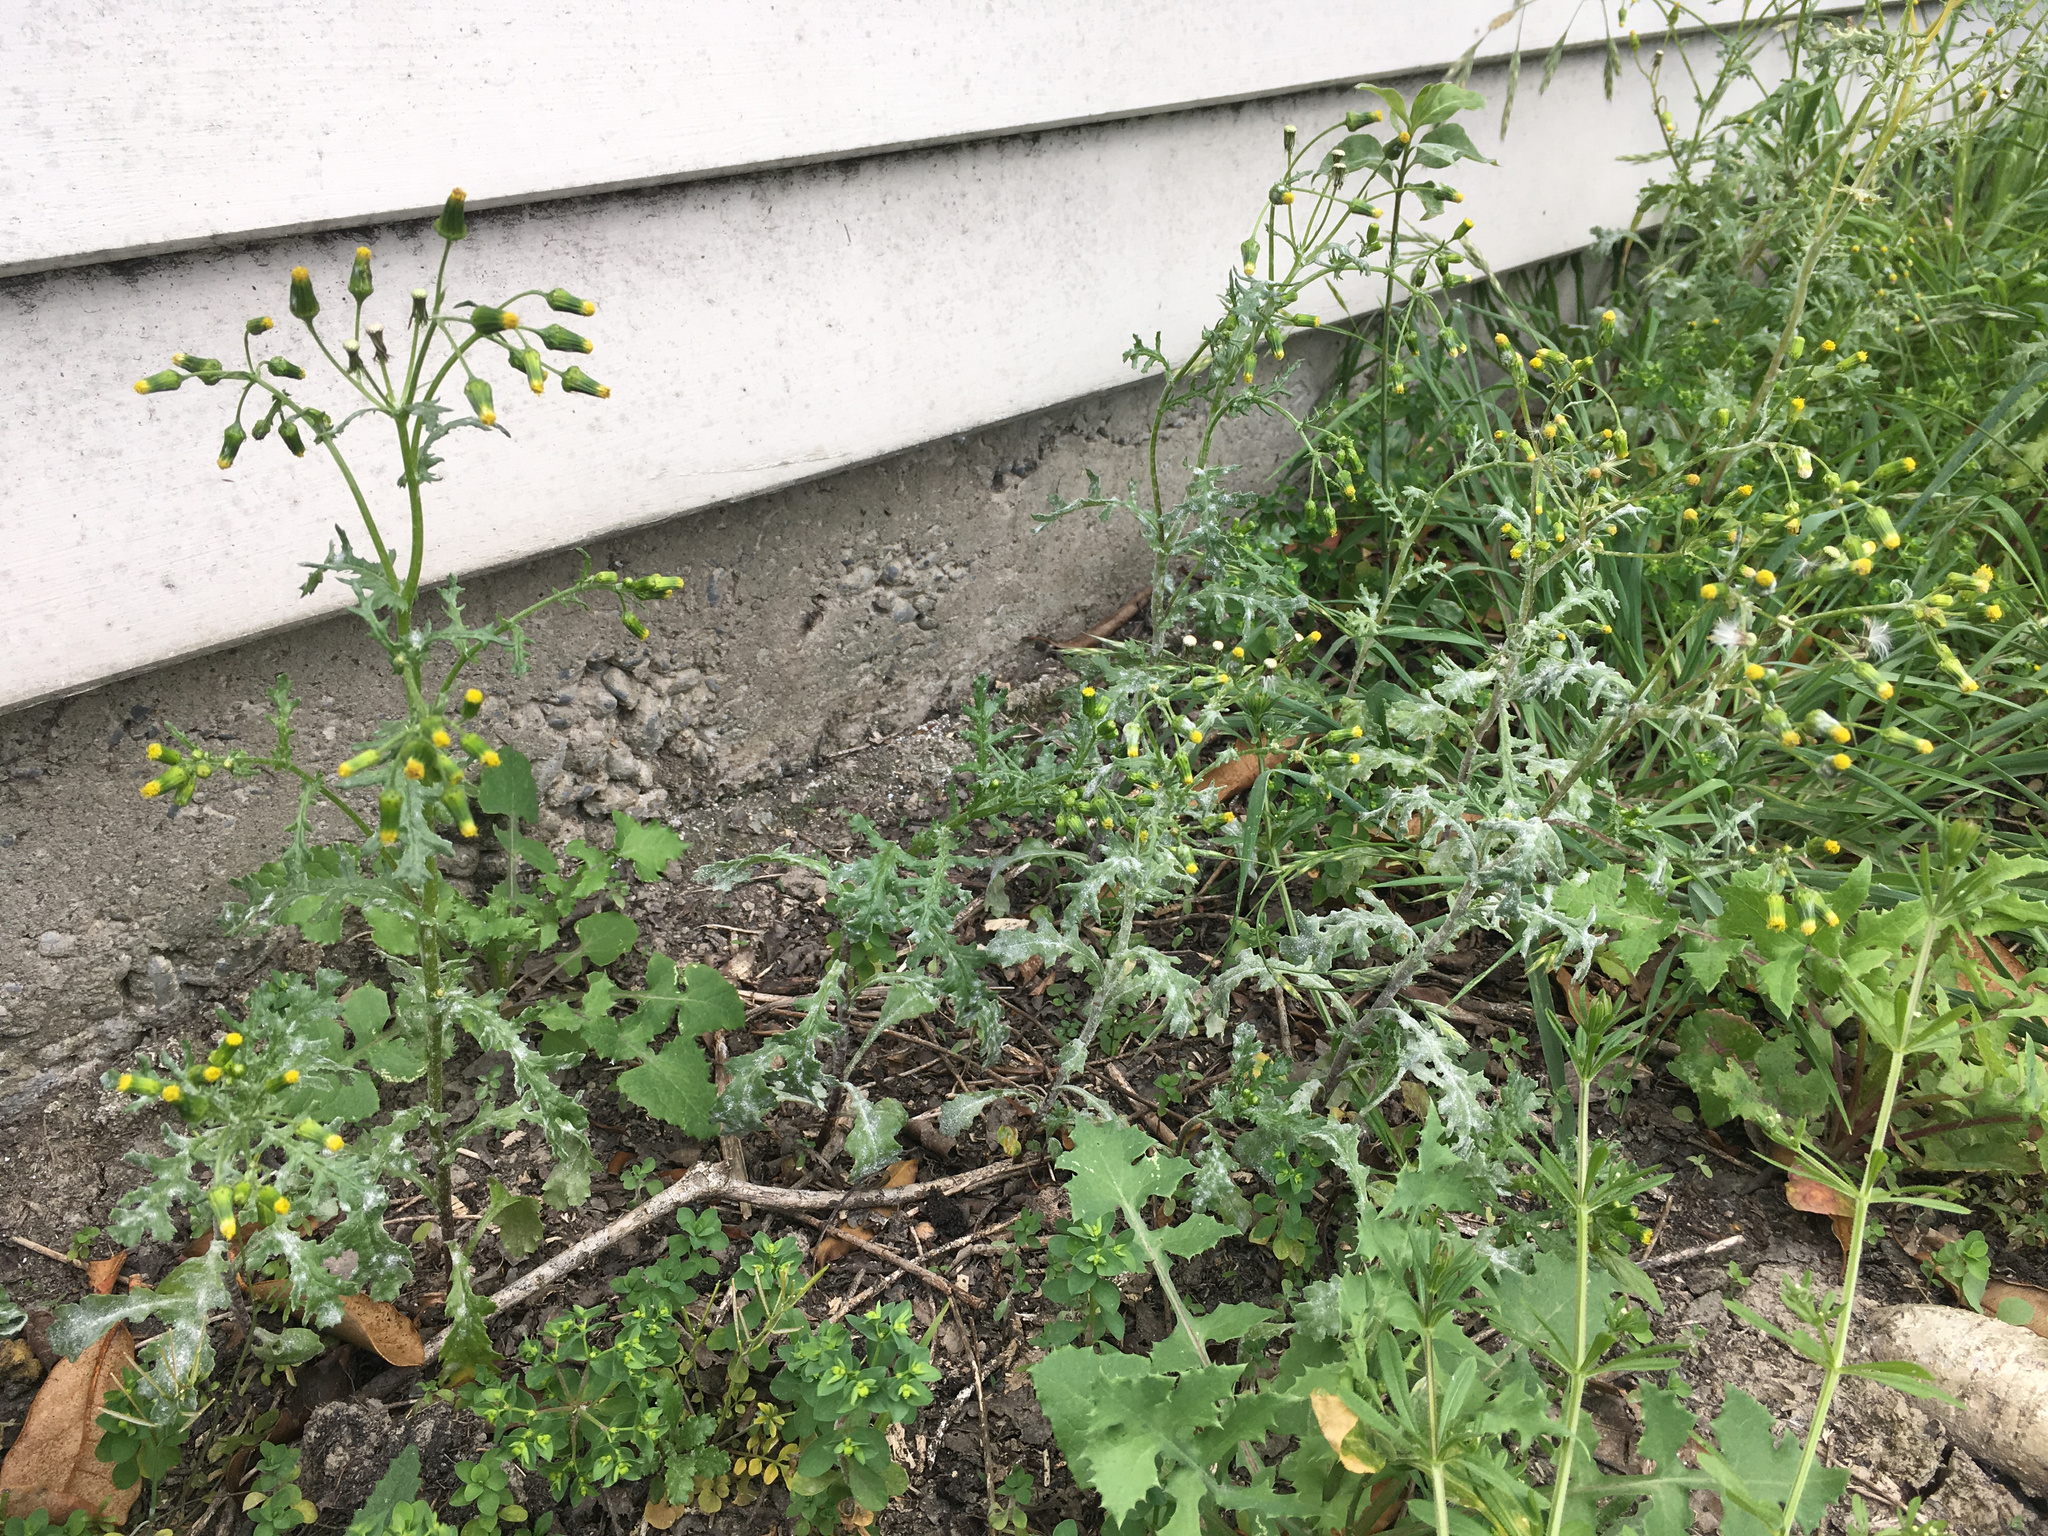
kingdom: Plantae
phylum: Tracheophyta
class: Magnoliopsida
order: Asterales
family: Asteraceae
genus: Senecio
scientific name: Senecio vulgaris
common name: Old-man-in-the-spring
